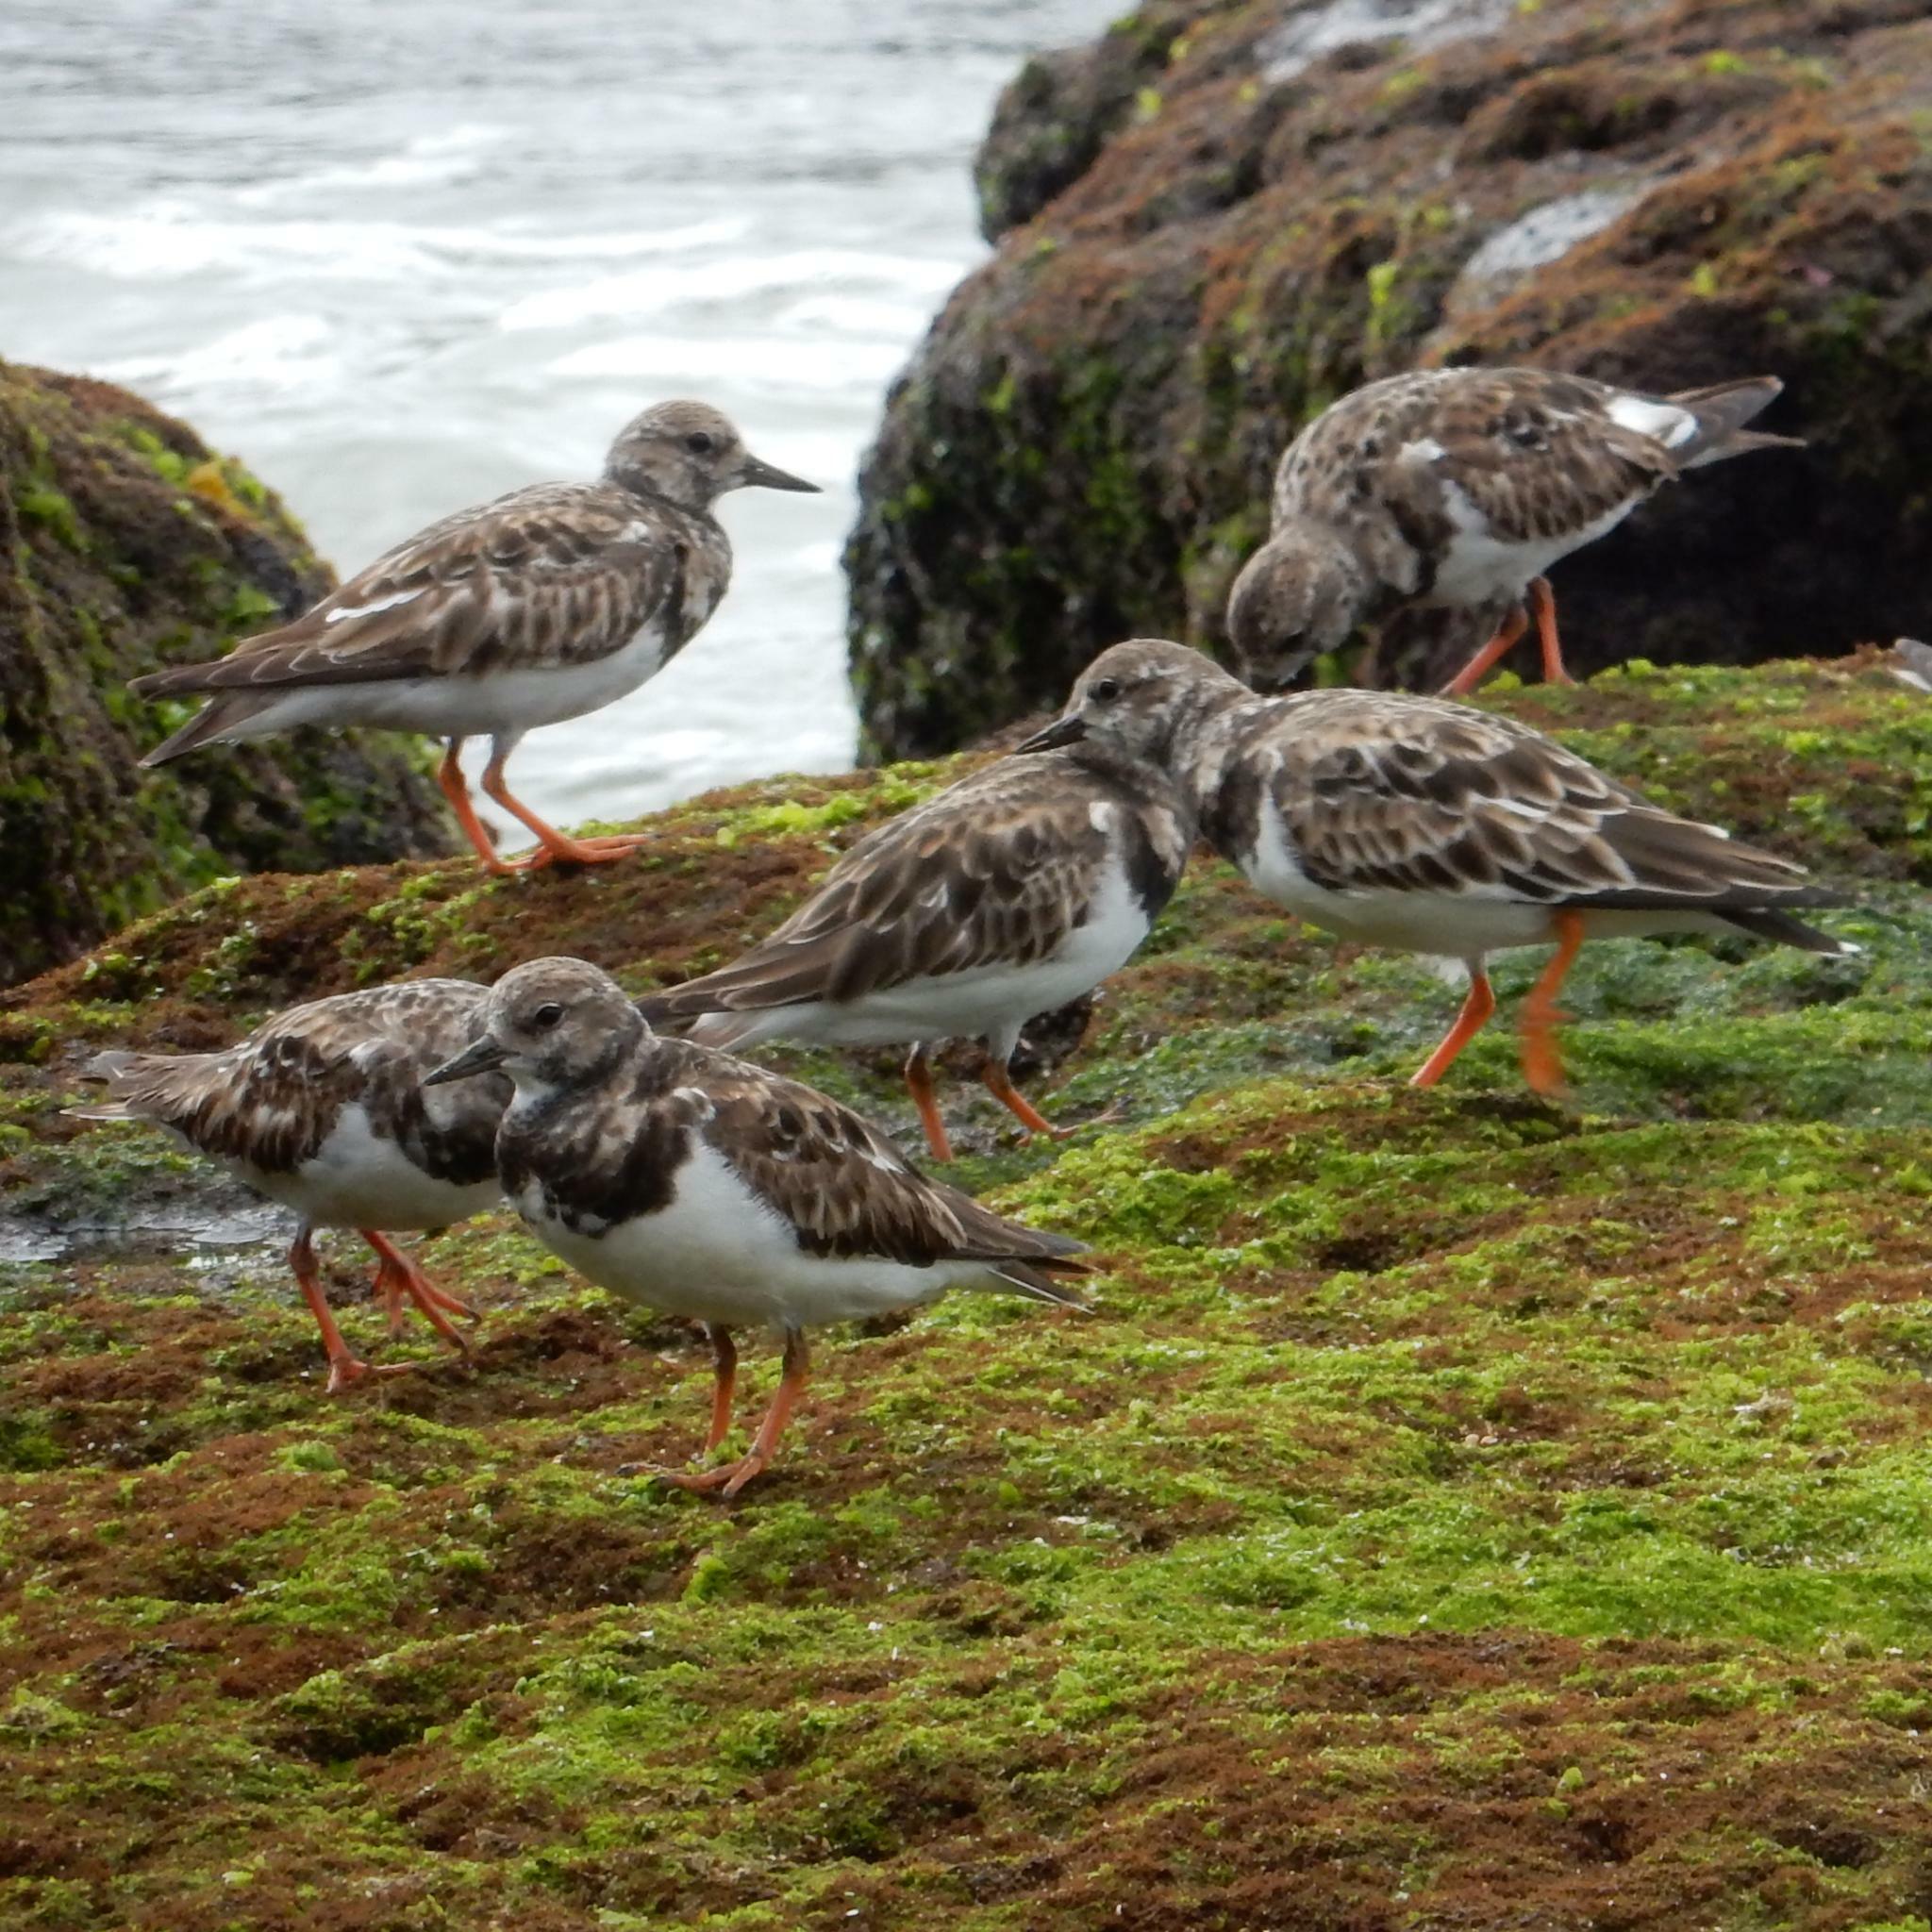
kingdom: Animalia
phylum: Chordata
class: Aves
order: Charadriiformes
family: Scolopacidae
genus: Arenaria
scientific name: Arenaria interpres
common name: Ruddy turnstone
